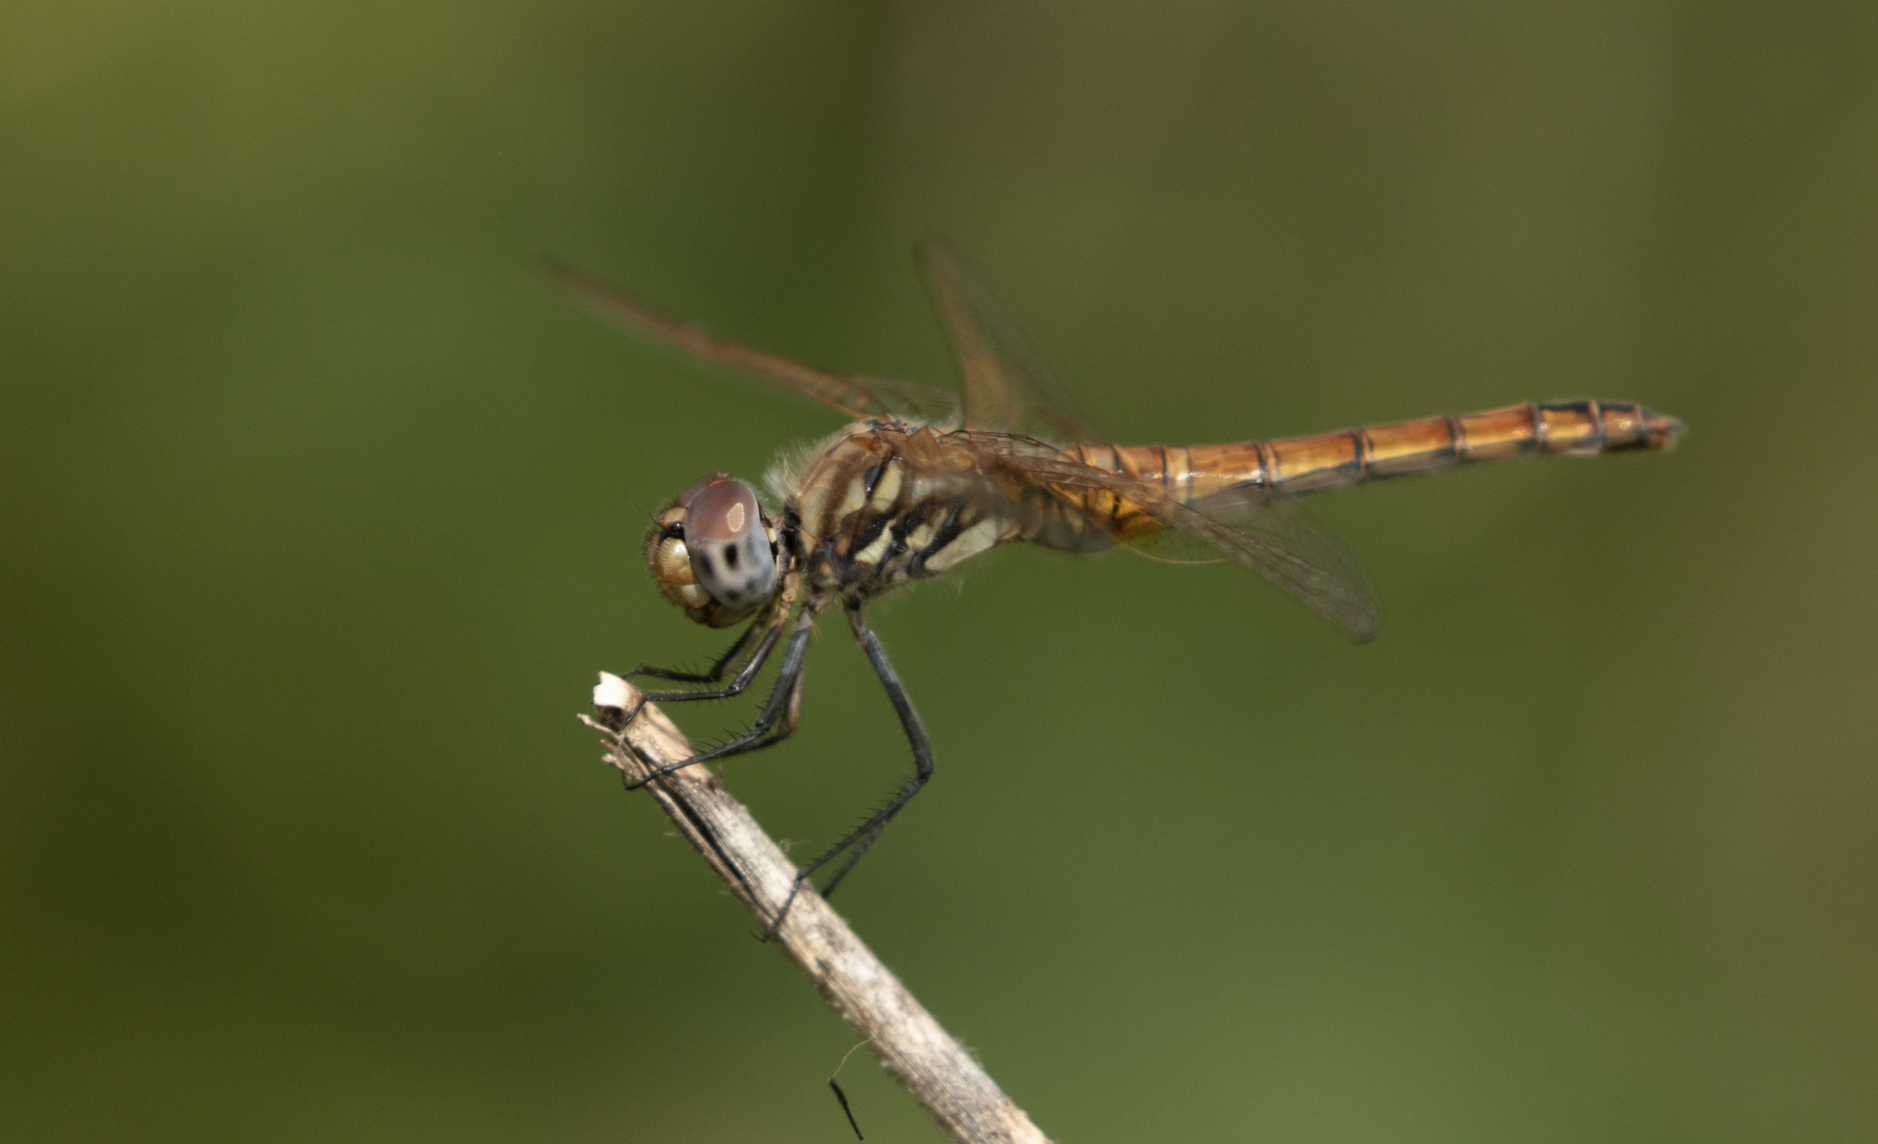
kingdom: Animalia
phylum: Arthropoda
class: Insecta
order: Odonata
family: Libellulidae
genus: Trithemis
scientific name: Trithemis annulata
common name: Violet dropwing
